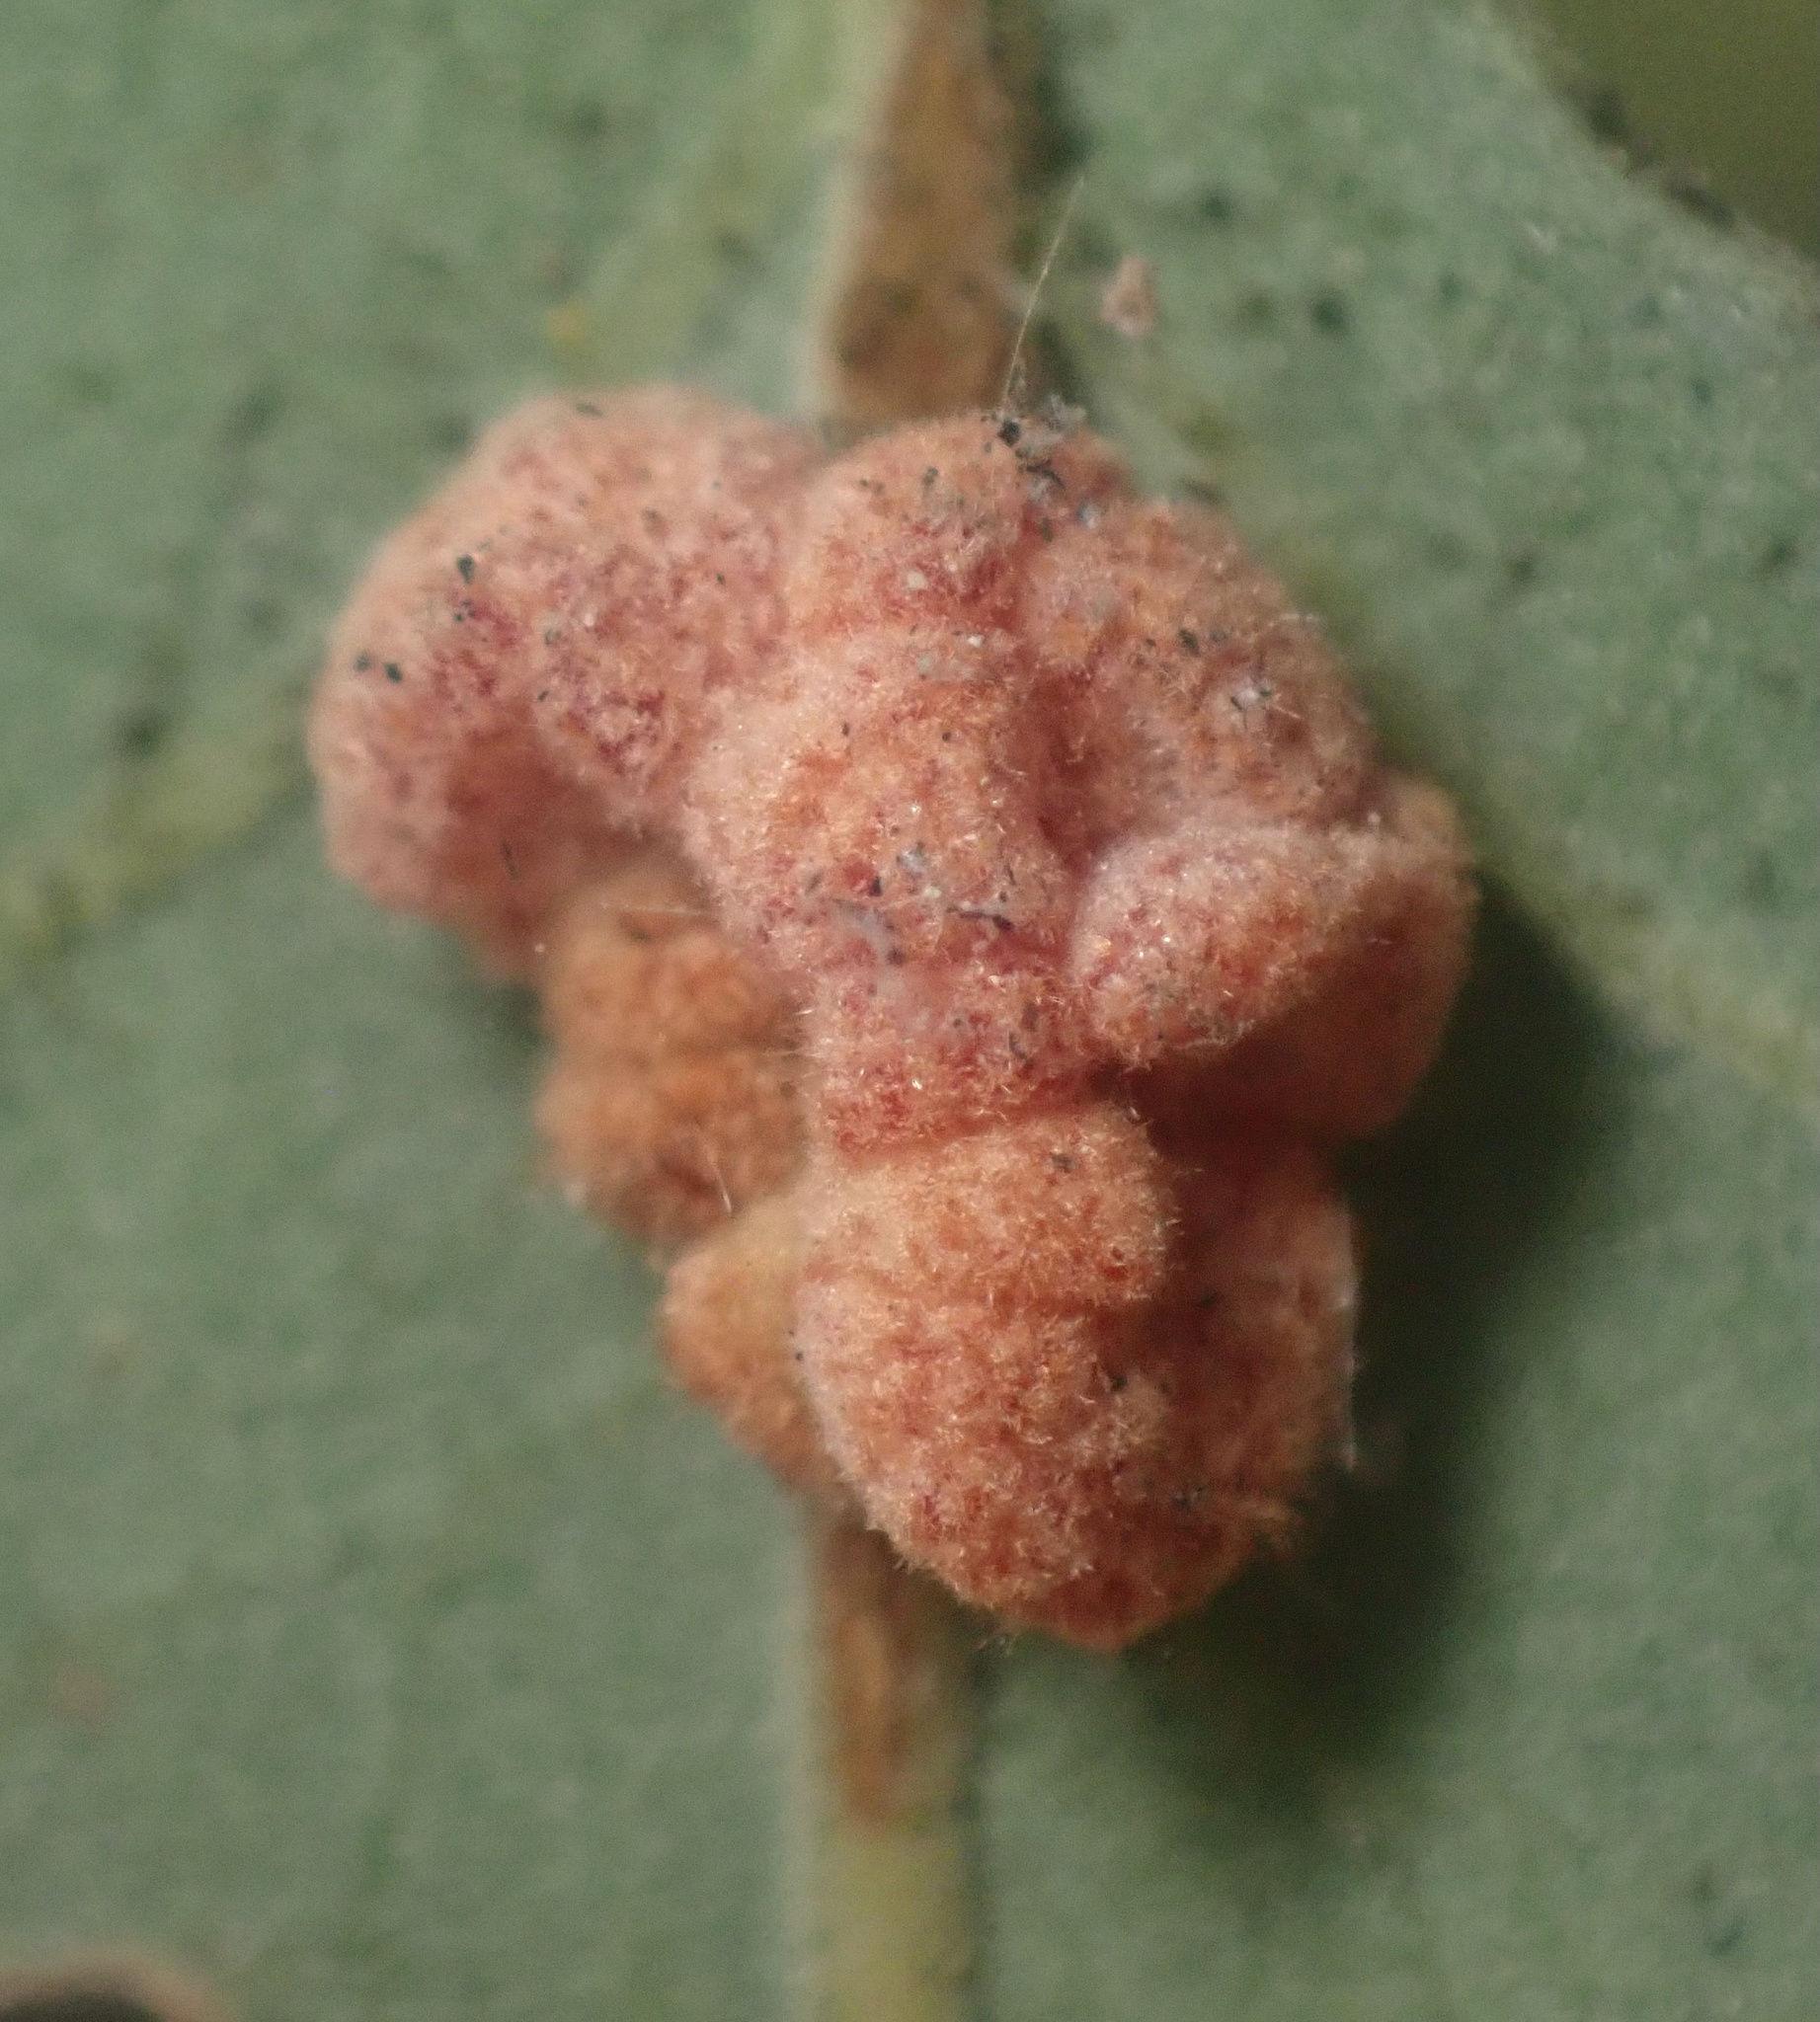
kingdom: Animalia
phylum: Arthropoda
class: Insecta
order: Hymenoptera
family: Cynipidae
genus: Andricus
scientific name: Andricus
